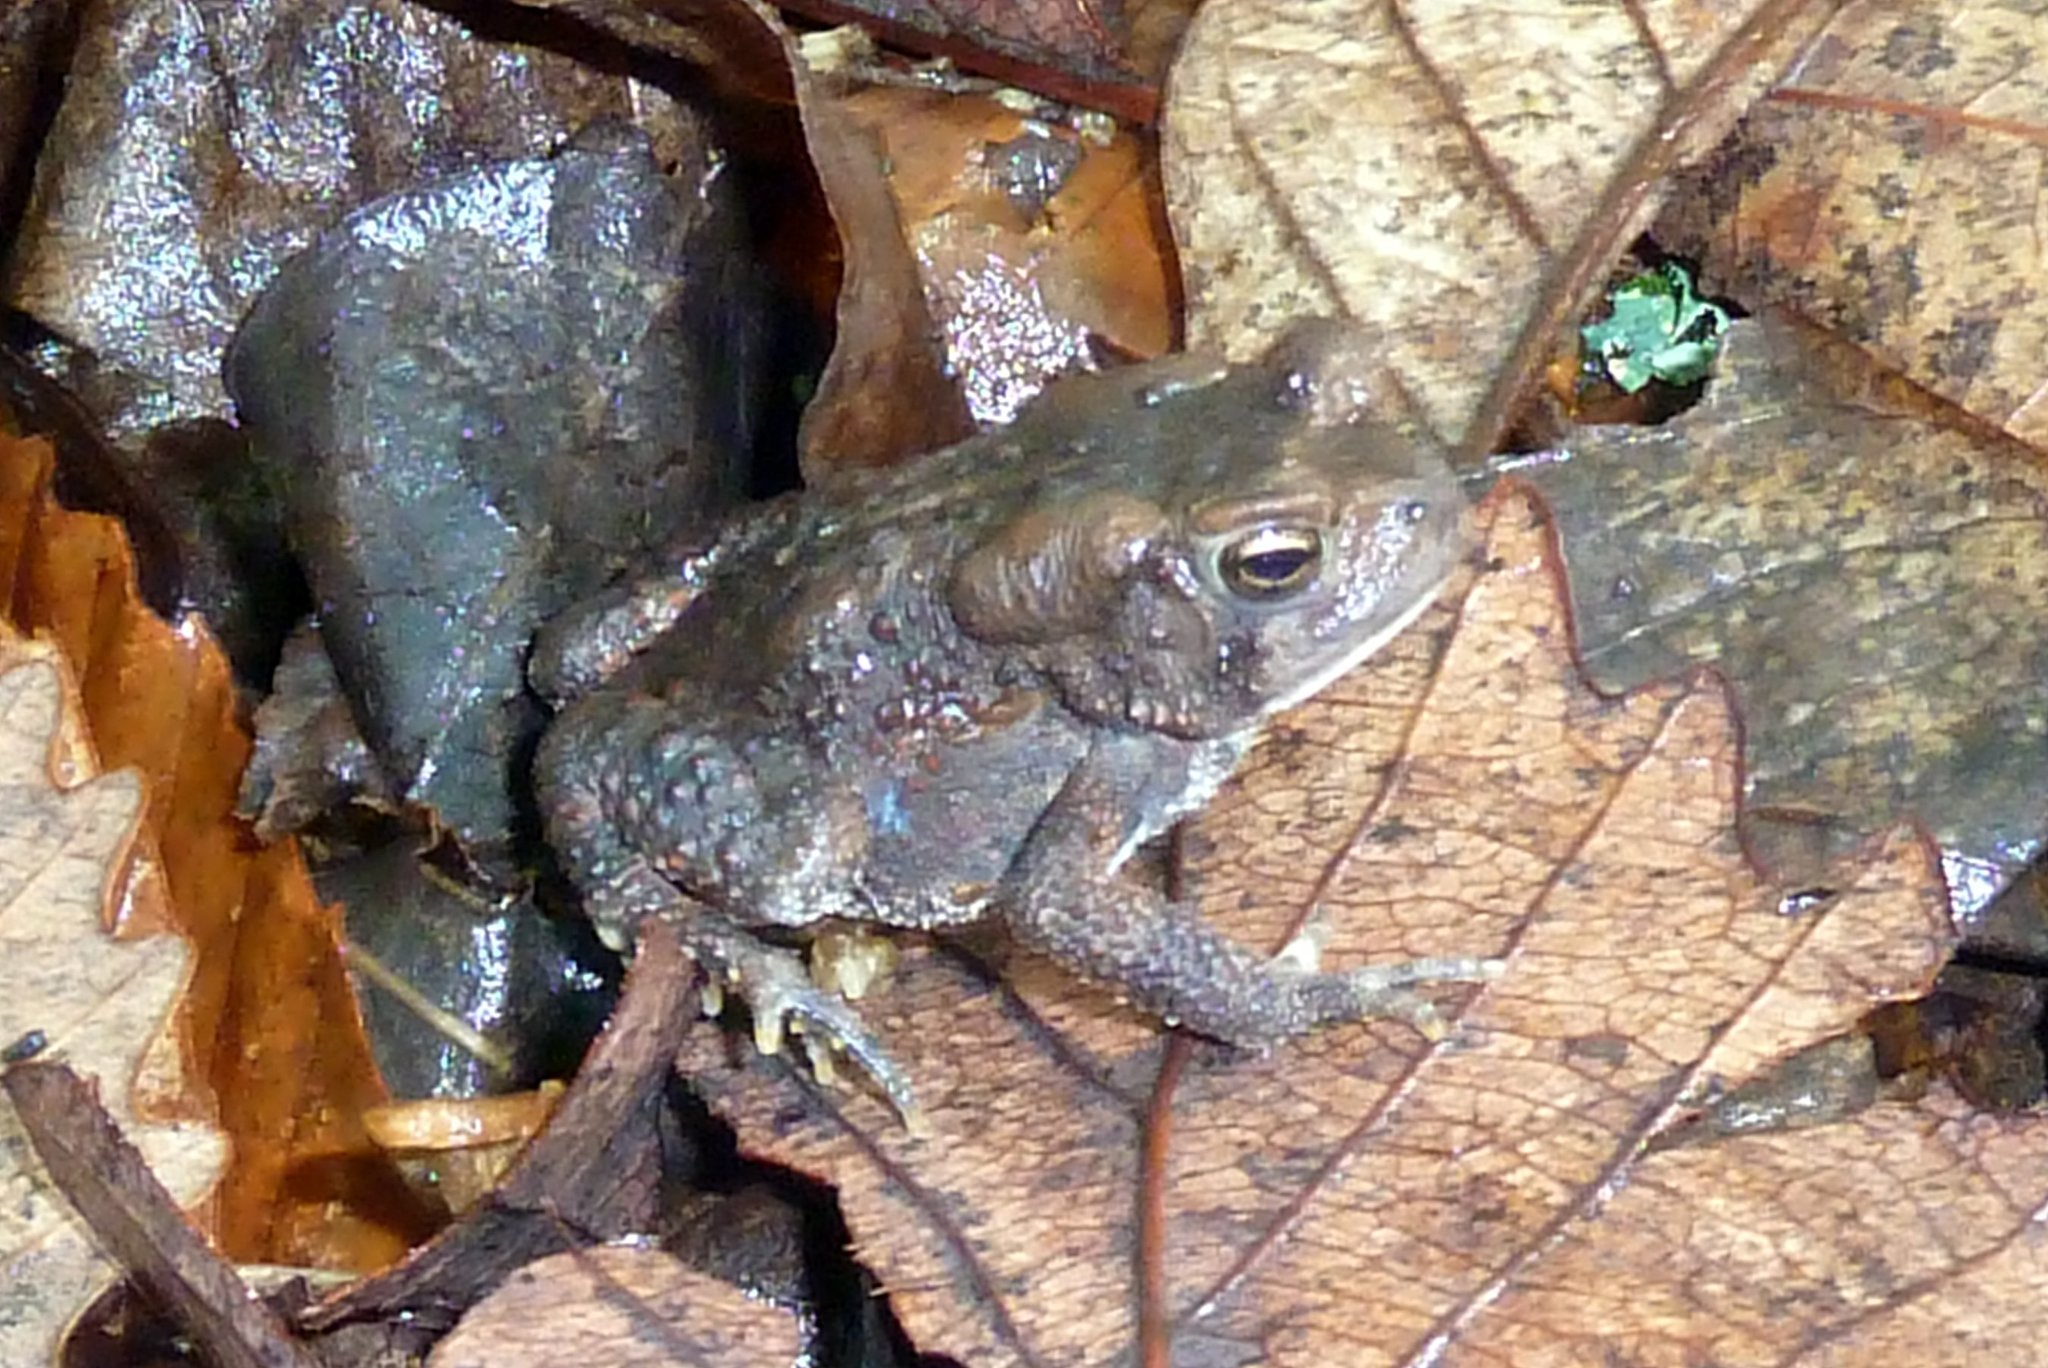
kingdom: Animalia
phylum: Chordata
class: Amphibia
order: Anura
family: Bufonidae
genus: Anaxyrus
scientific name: Anaxyrus americanus
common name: American toad
